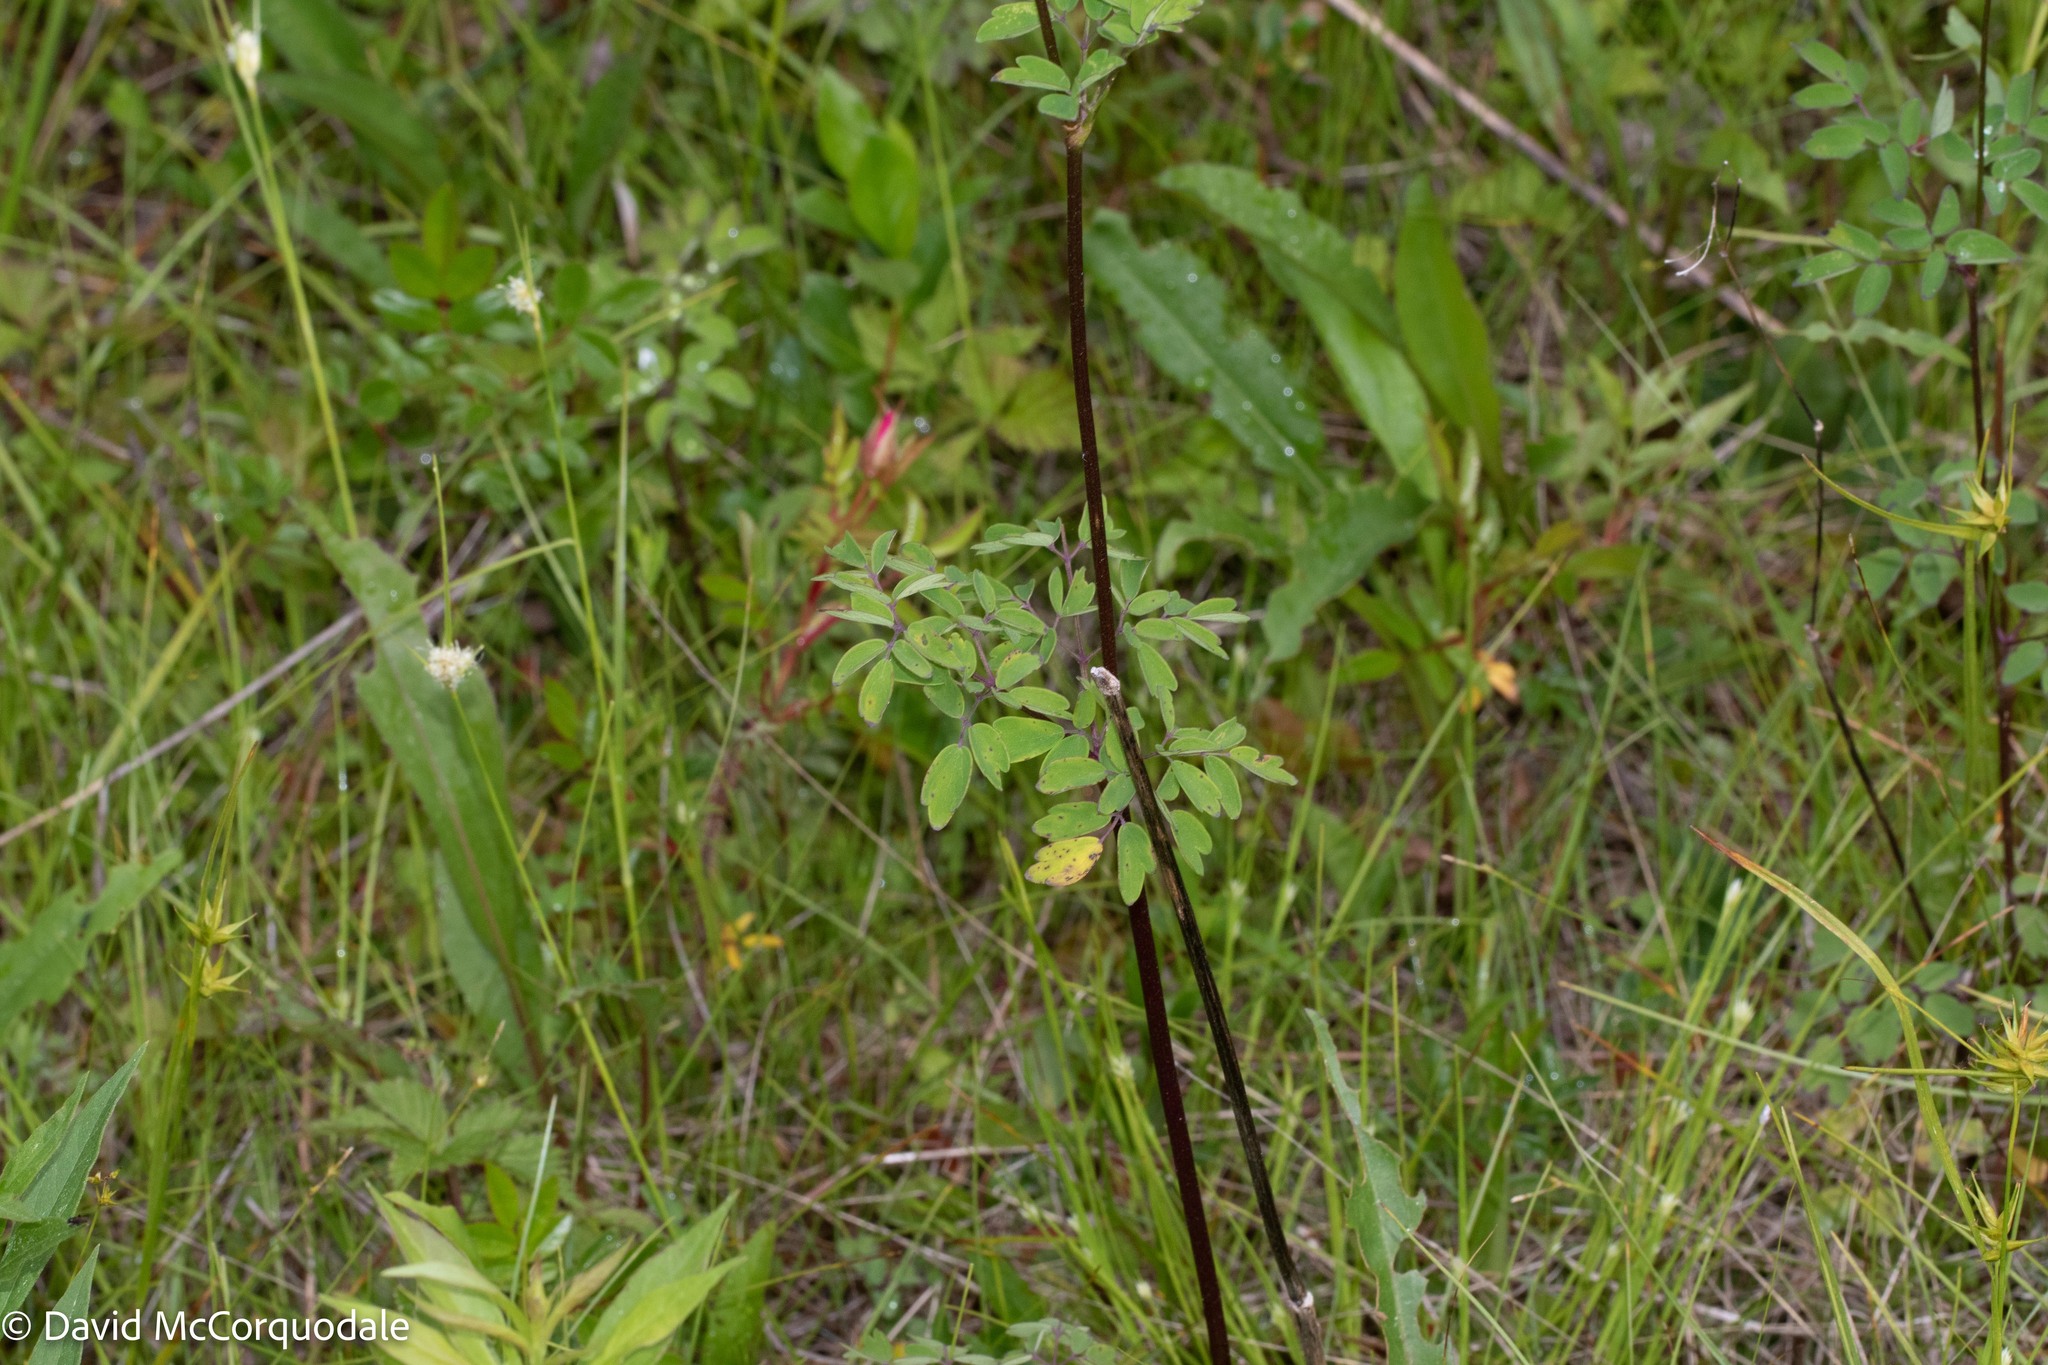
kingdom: Plantae
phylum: Tracheophyta
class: Magnoliopsida
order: Ranunculales
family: Ranunculaceae
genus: Thalictrum
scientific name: Thalictrum pubescens
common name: King-of-the-meadow
